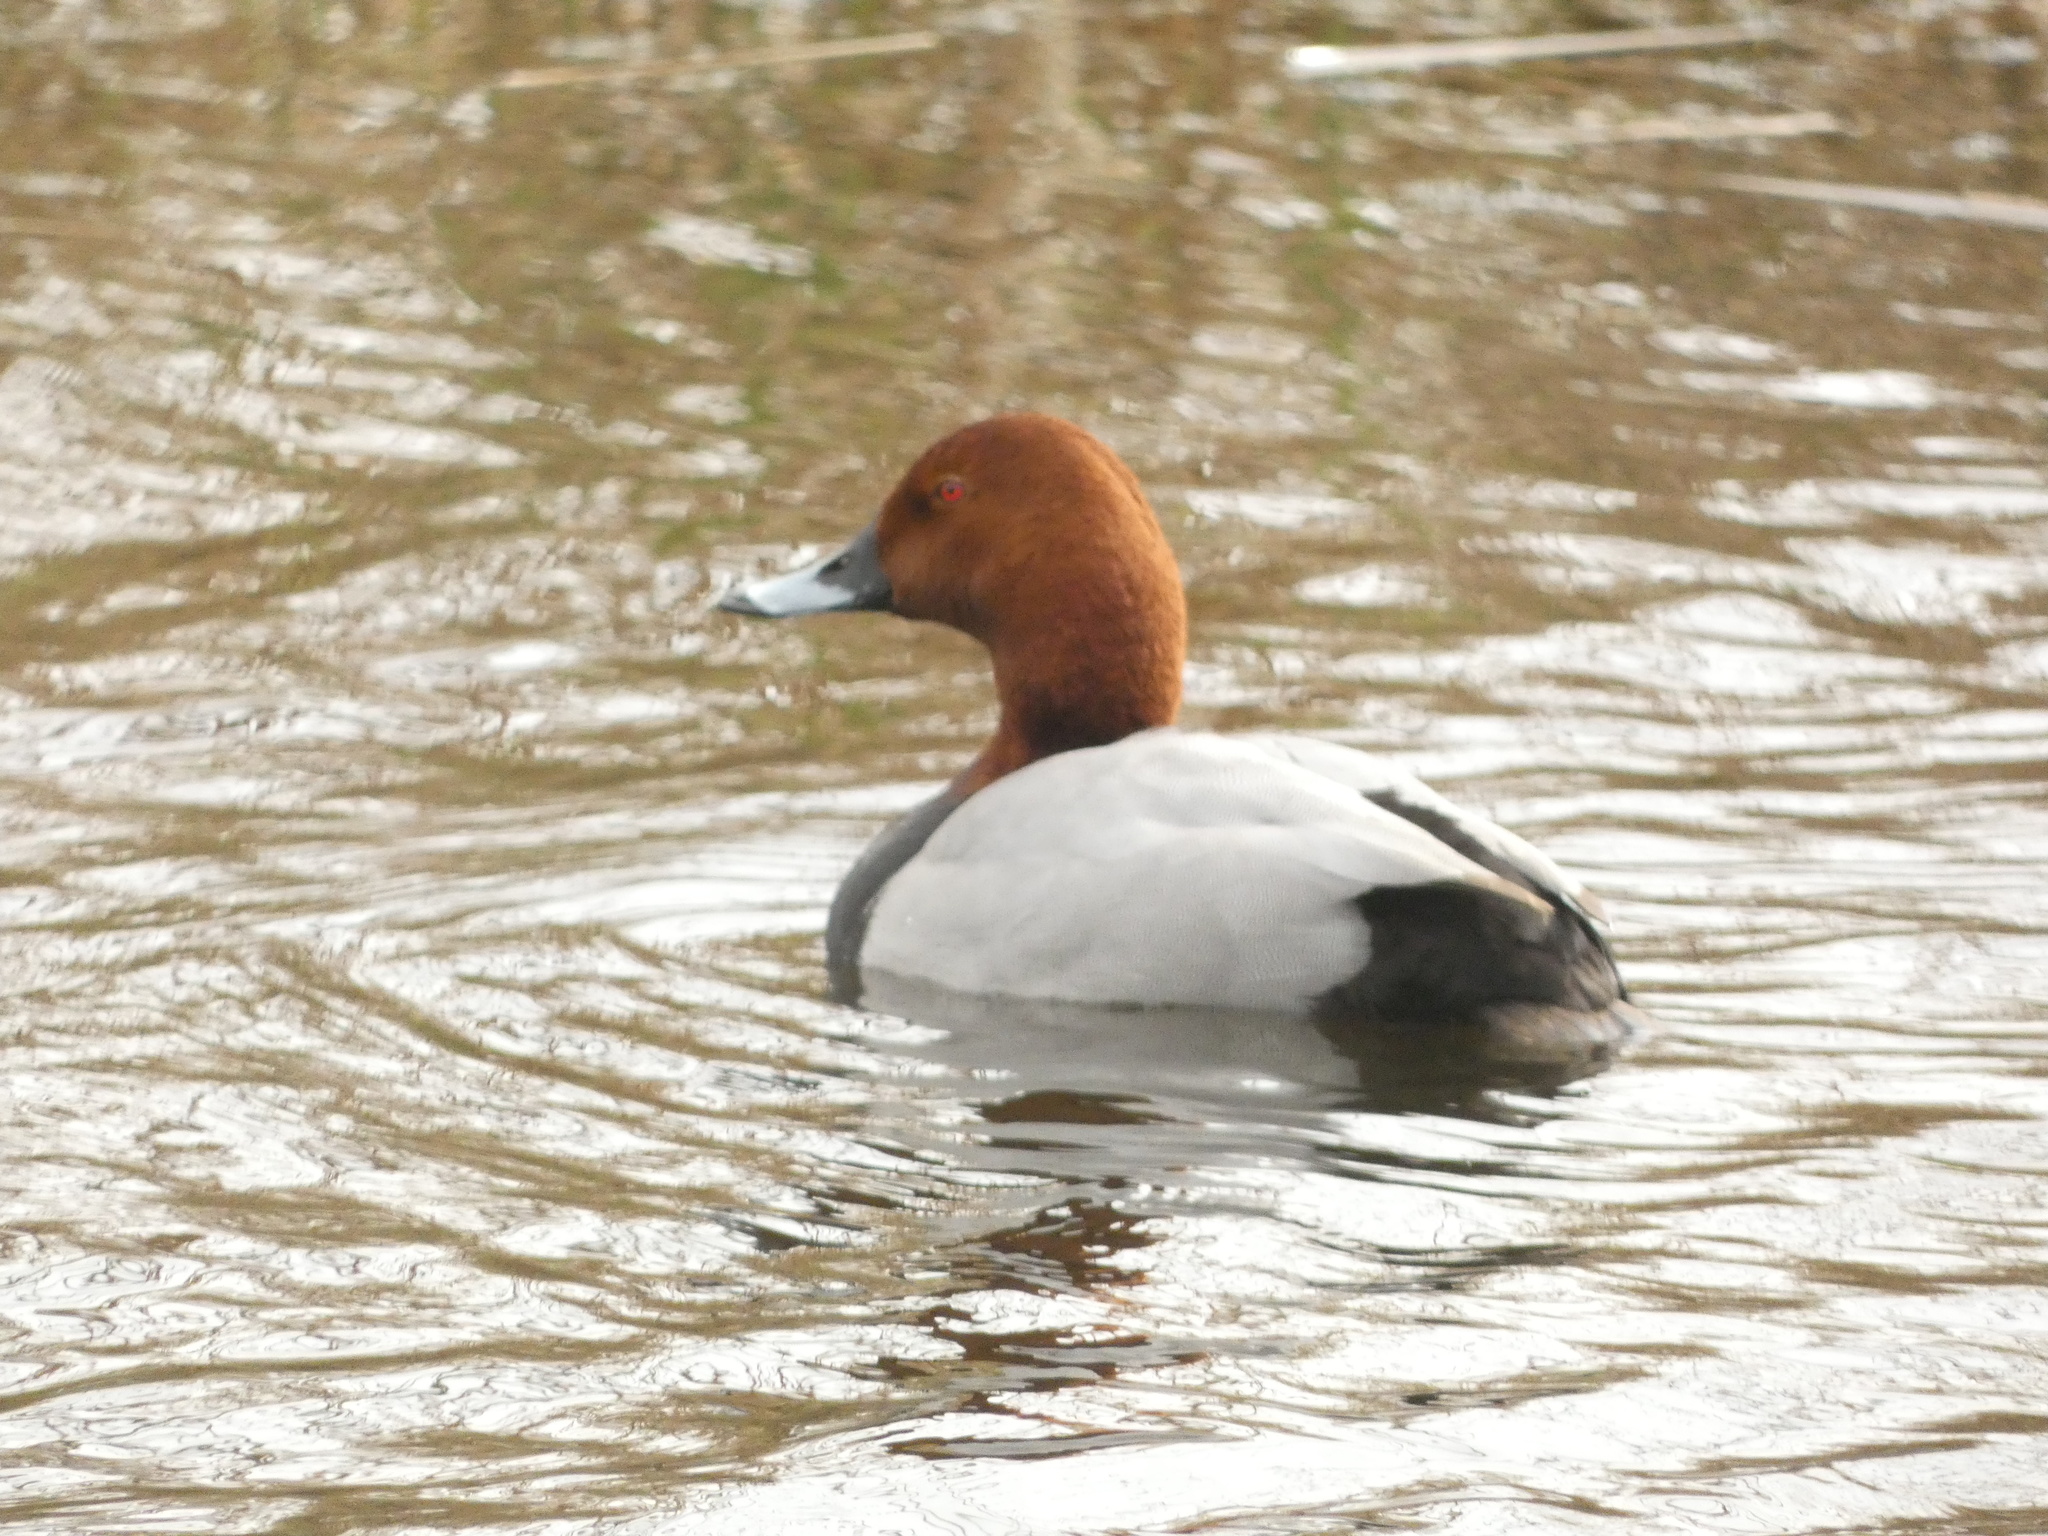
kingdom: Animalia
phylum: Chordata
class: Aves
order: Anseriformes
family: Anatidae
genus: Aythya
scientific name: Aythya ferina
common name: Common pochard
